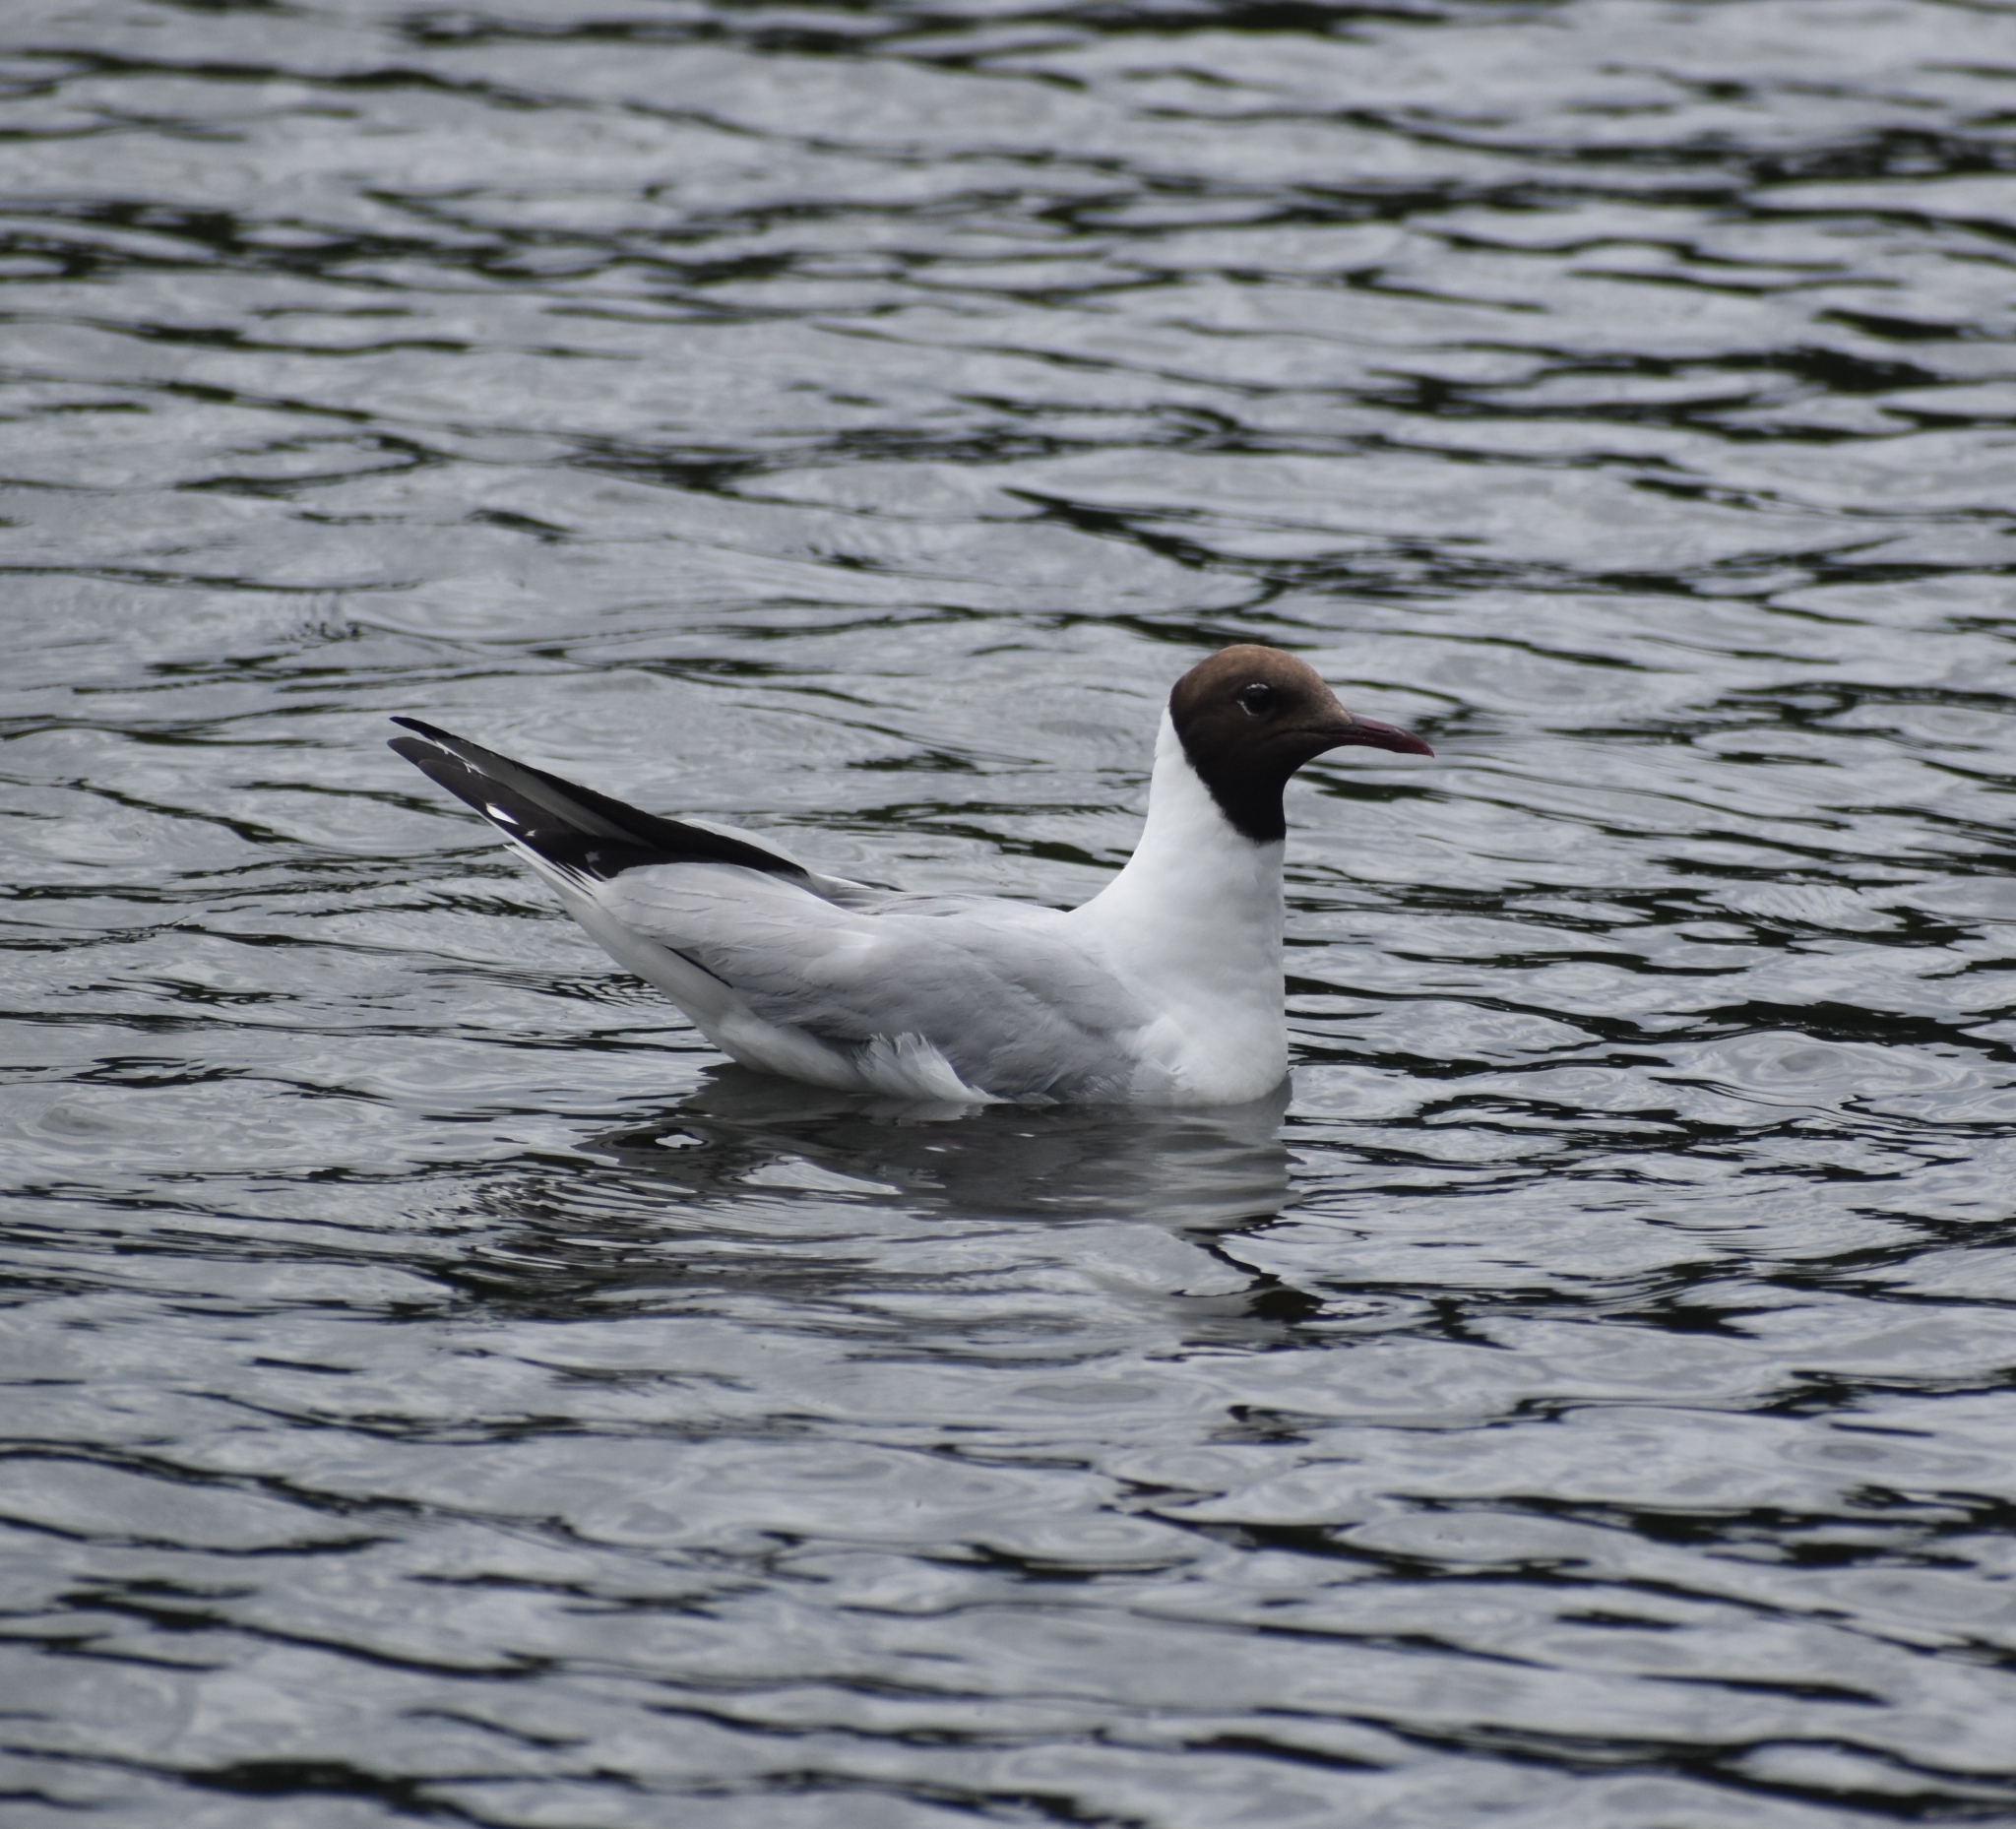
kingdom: Animalia
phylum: Chordata
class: Aves
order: Charadriiformes
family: Laridae
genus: Chroicocephalus
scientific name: Chroicocephalus ridibundus
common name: Black-headed gull
